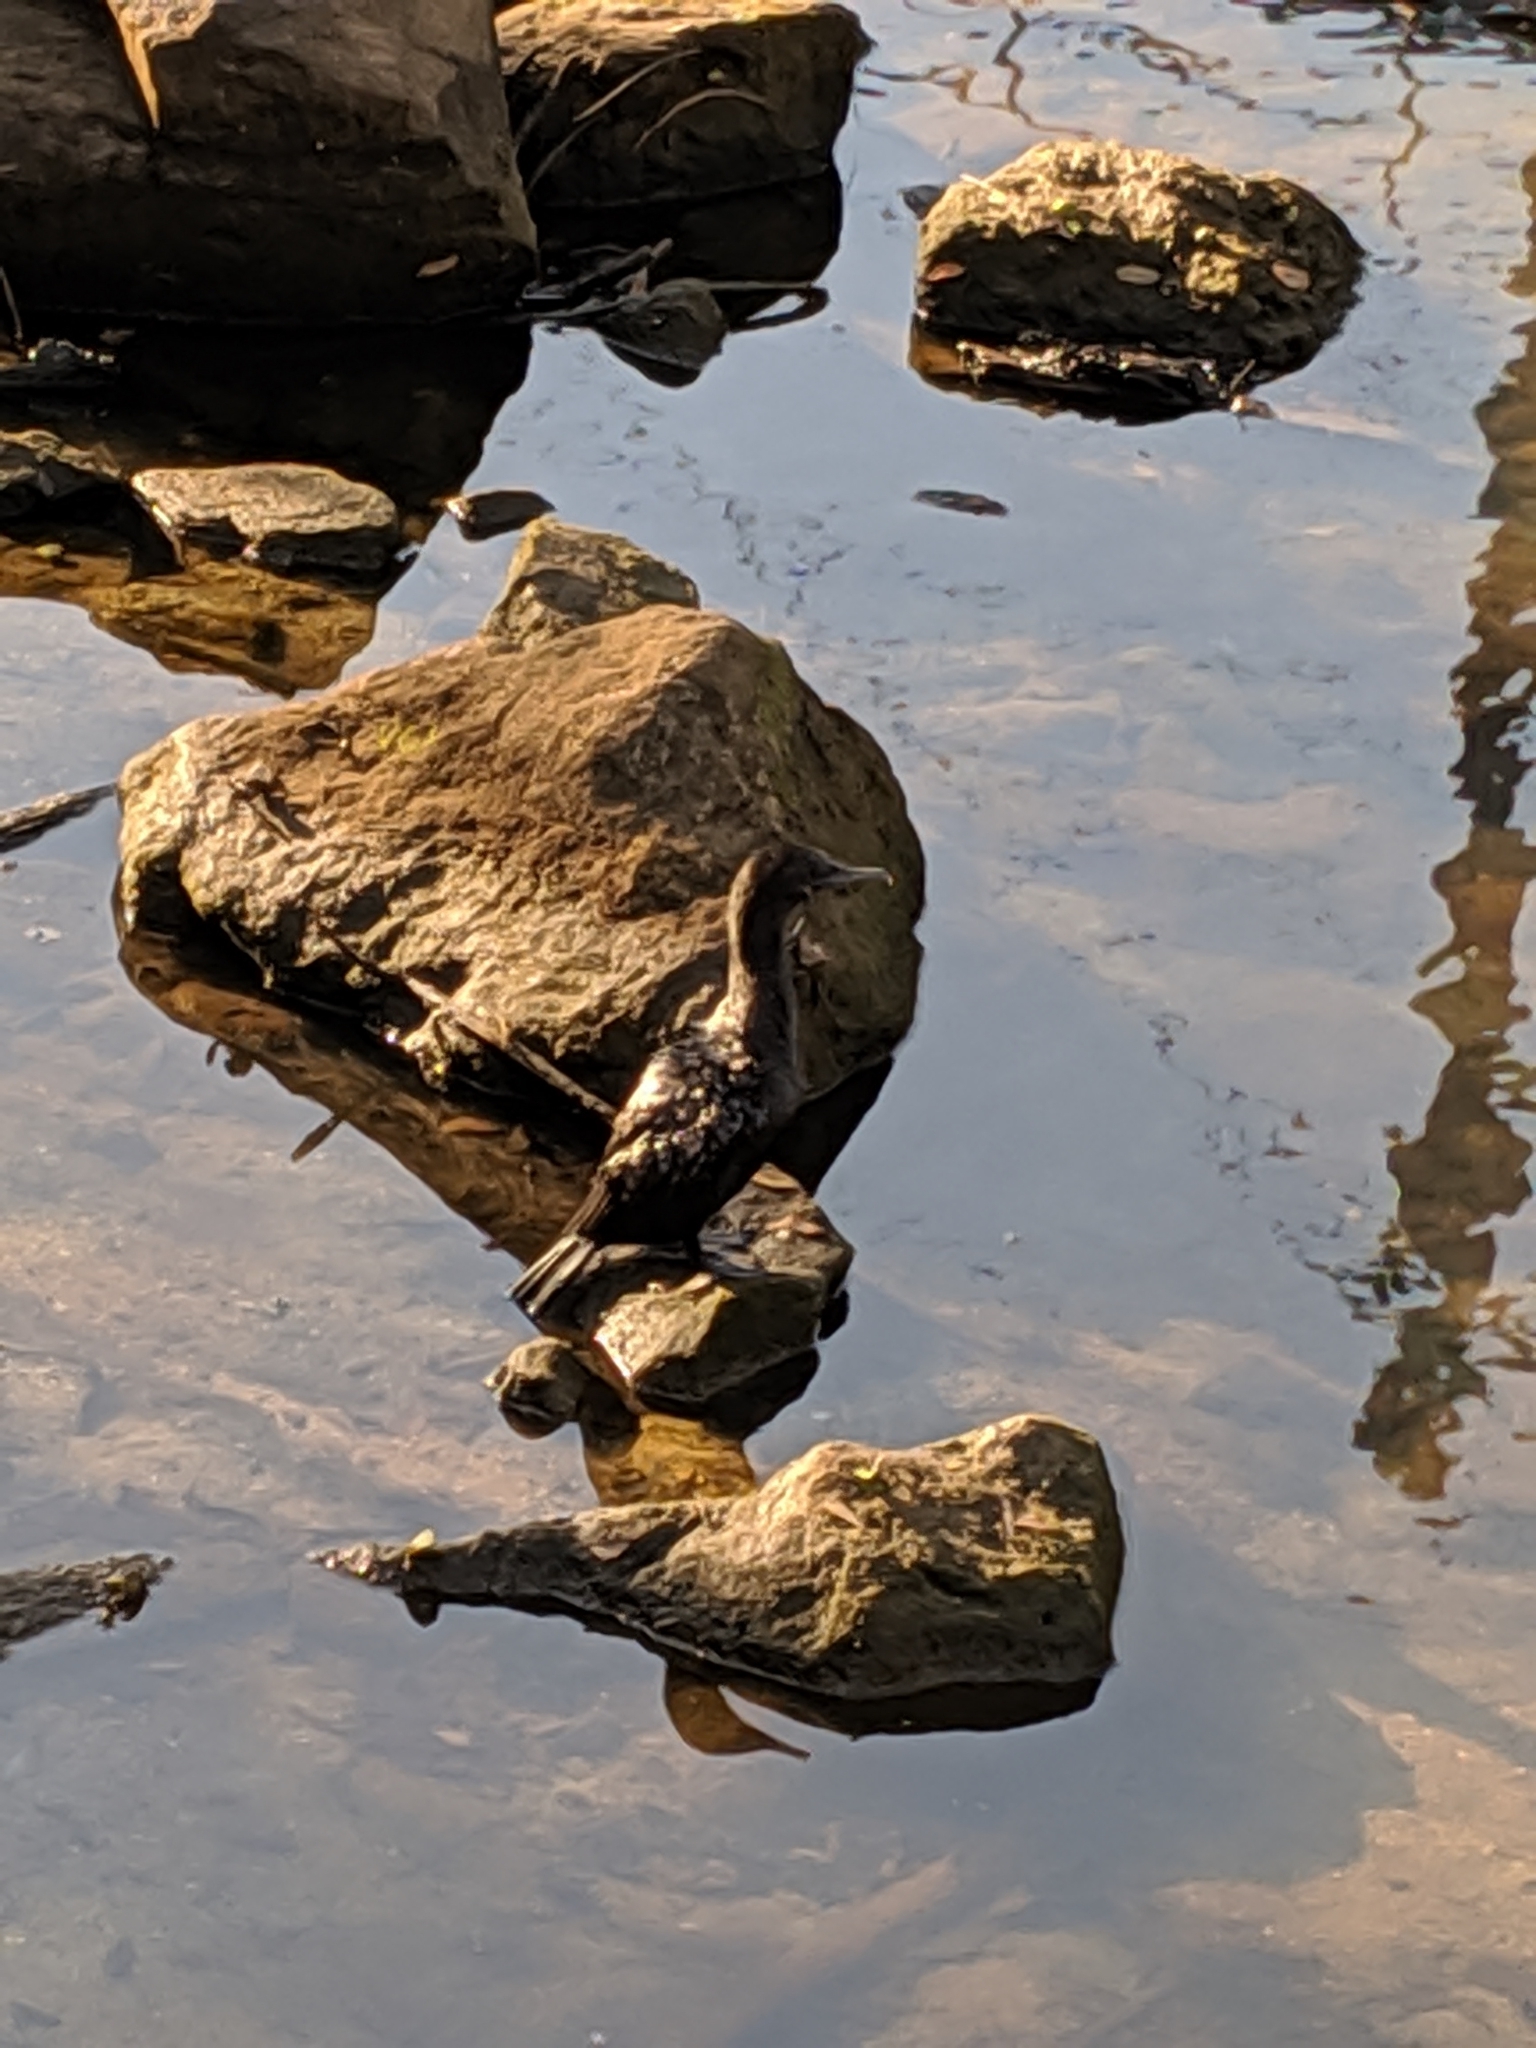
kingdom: Animalia
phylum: Chordata
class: Aves
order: Suliformes
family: Phalacrocoracidae
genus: Phalacrocorax
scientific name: Phalacrocorax sulcirostris
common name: Little black cormorant
